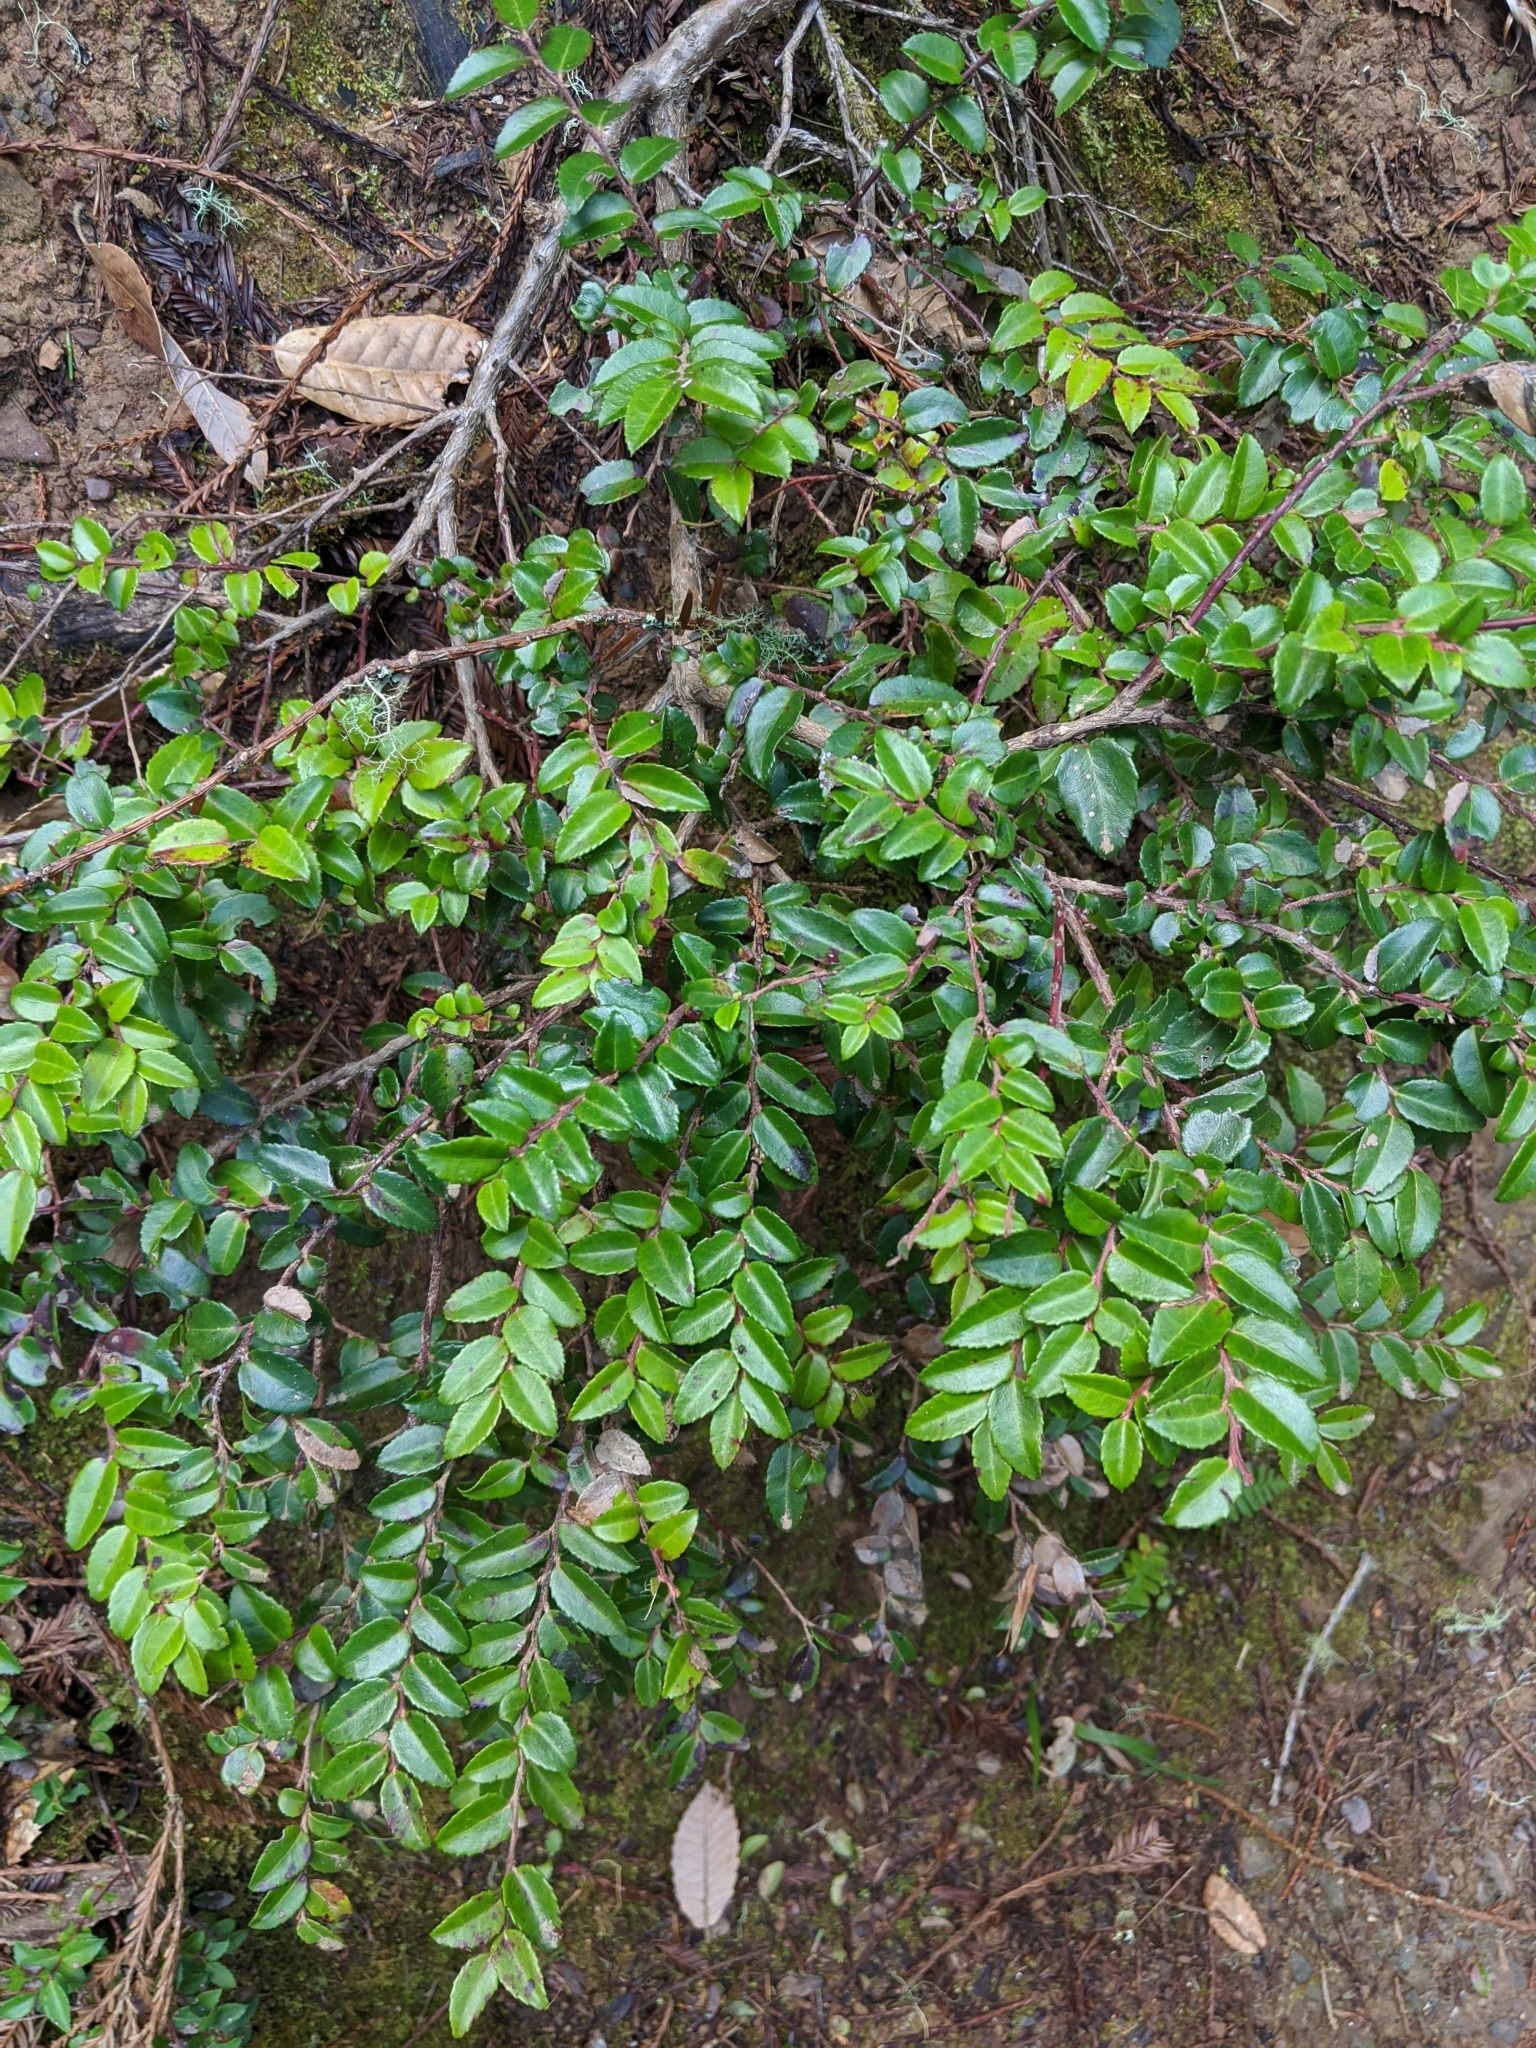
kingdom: Plantae
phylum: Tracheophyta
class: Magnoliopsida
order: Ericales
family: Ericaceae
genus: Vaccinium
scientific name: Vaccinium ovatum
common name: California-huckleberry
